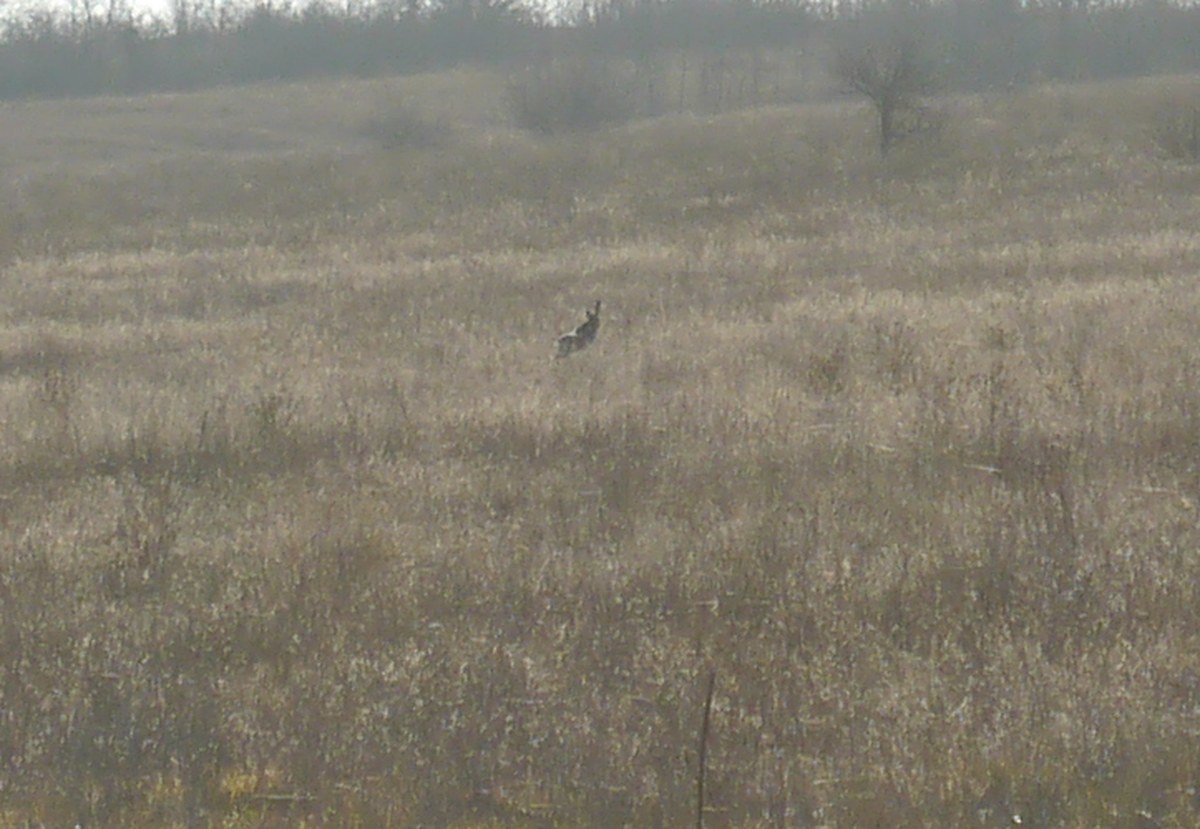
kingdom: Animalia
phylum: Chordata
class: Mammalia
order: Lagomorpha
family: Leporidae
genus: Lepus
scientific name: Lepus europaeus
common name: European hare
